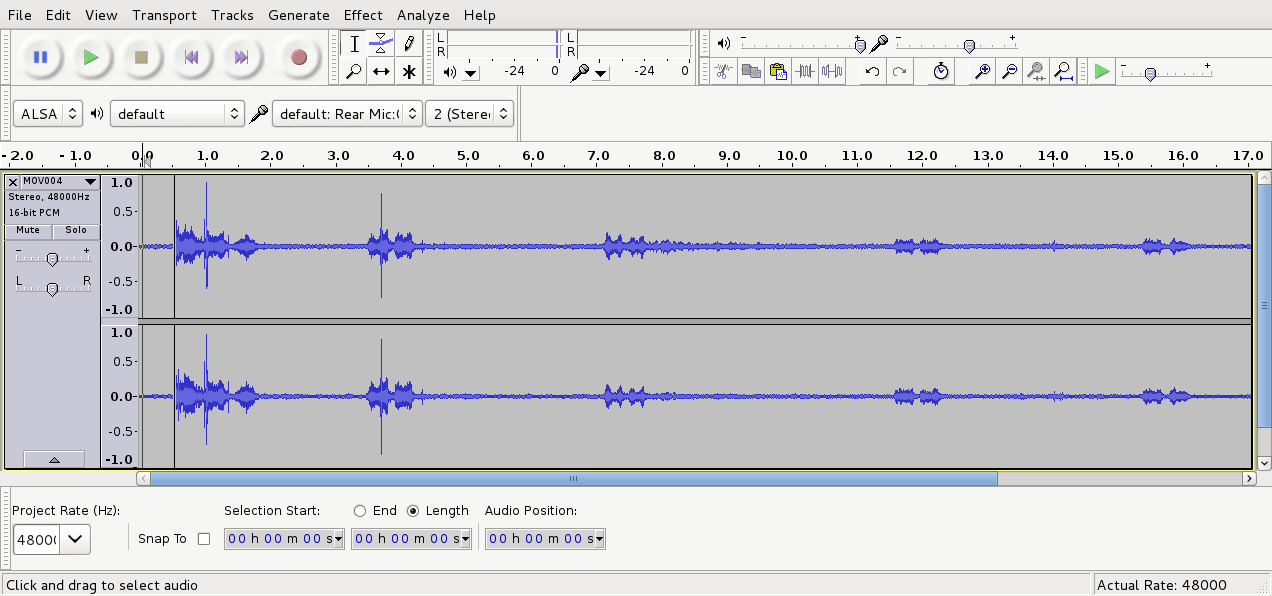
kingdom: Animalia
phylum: Chordata
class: Aves
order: Passeriformes
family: Meliphagidae
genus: Prosthemadera
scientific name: Prosthemadera novaeseelandiae
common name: Tui
